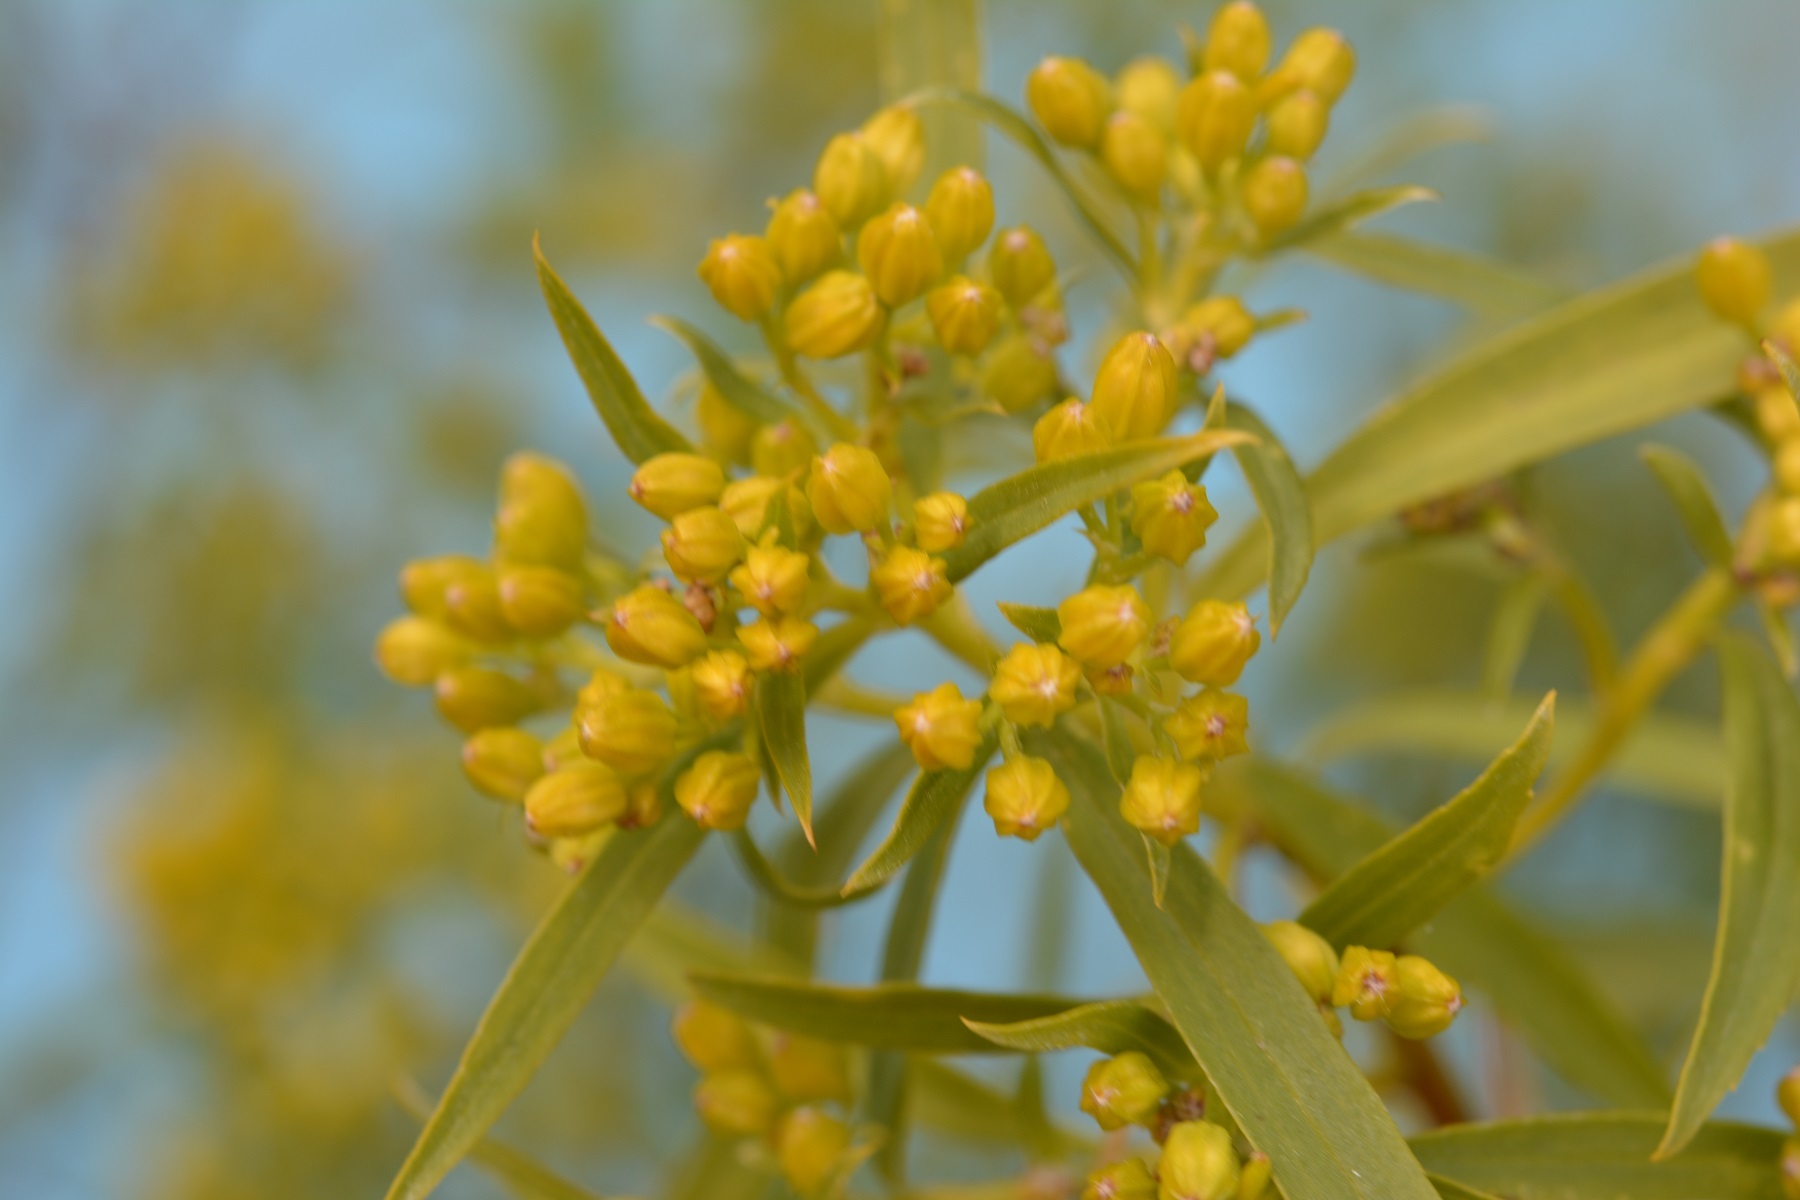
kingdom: Plantae
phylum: Tracheophyta
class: Magnoliopsida
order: Asterales
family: Asteraceae
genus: Barkleyanthus
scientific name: Barkleyanthus salicifolius
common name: Willow ragwort
